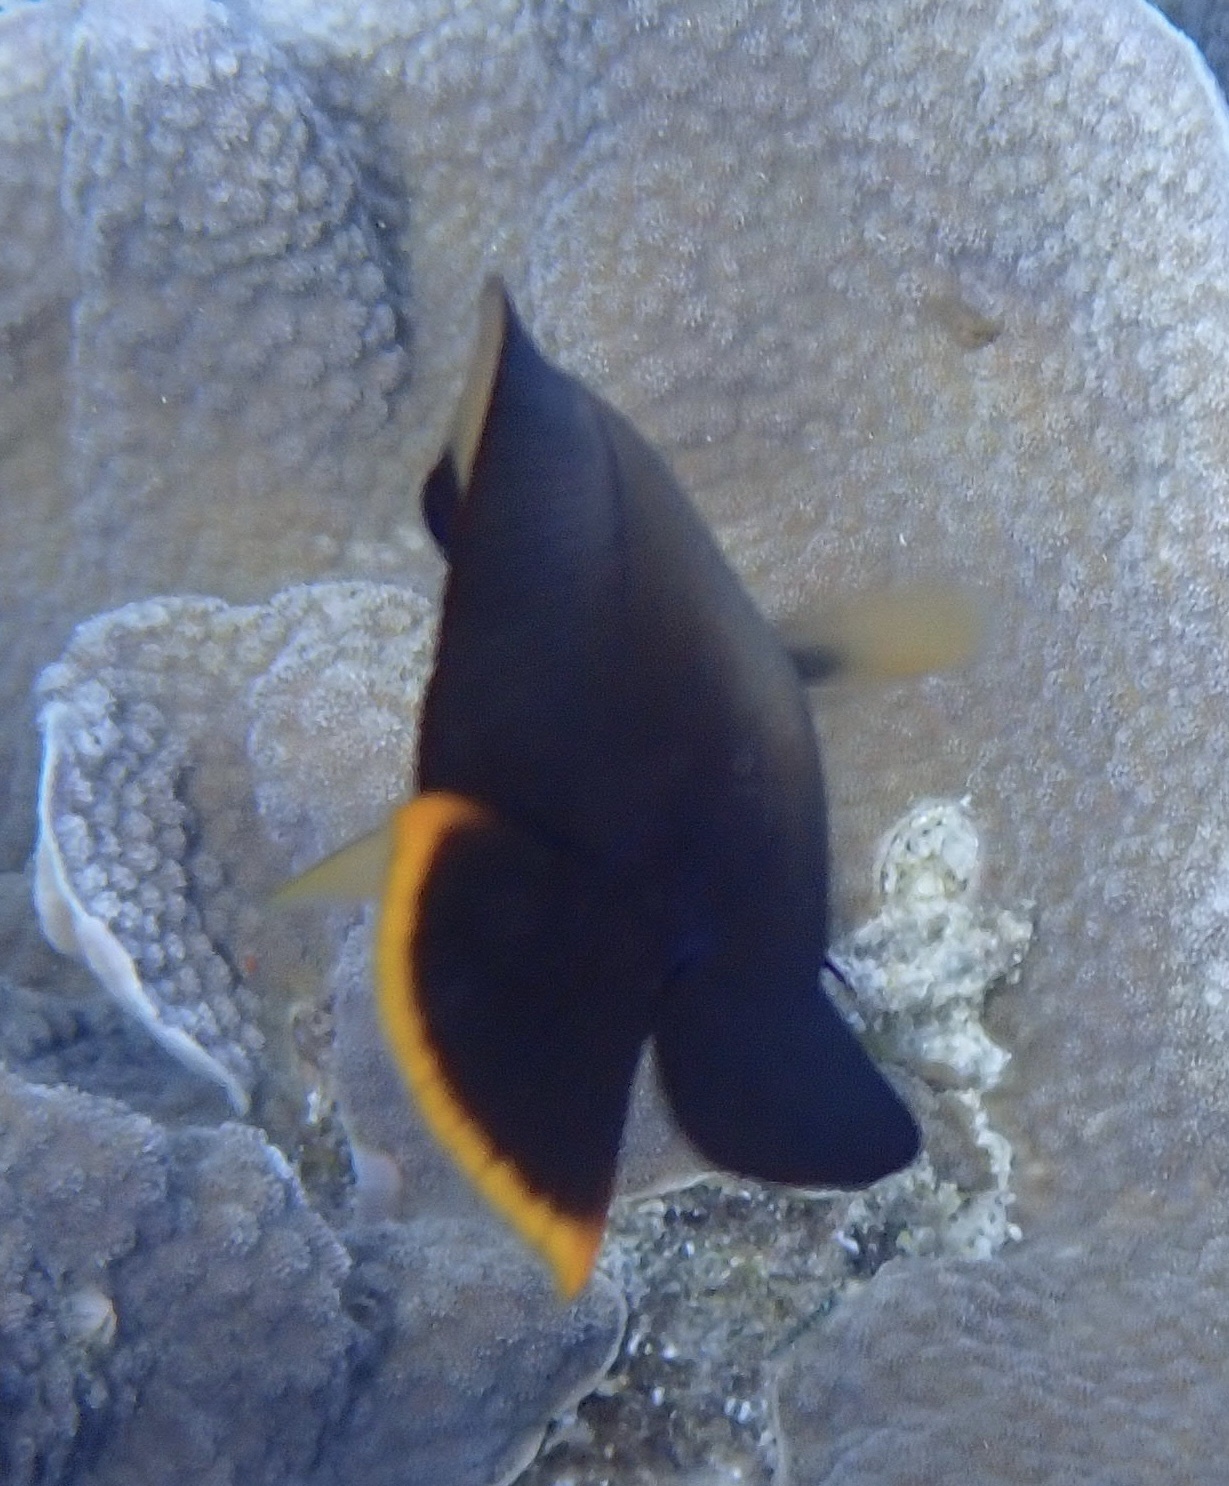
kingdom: Animalia
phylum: Chordata
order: Perciformes
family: Acanthuridae
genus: Acanthurus
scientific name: Acanthurus pyroferus
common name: Chocolate surgeonfish
